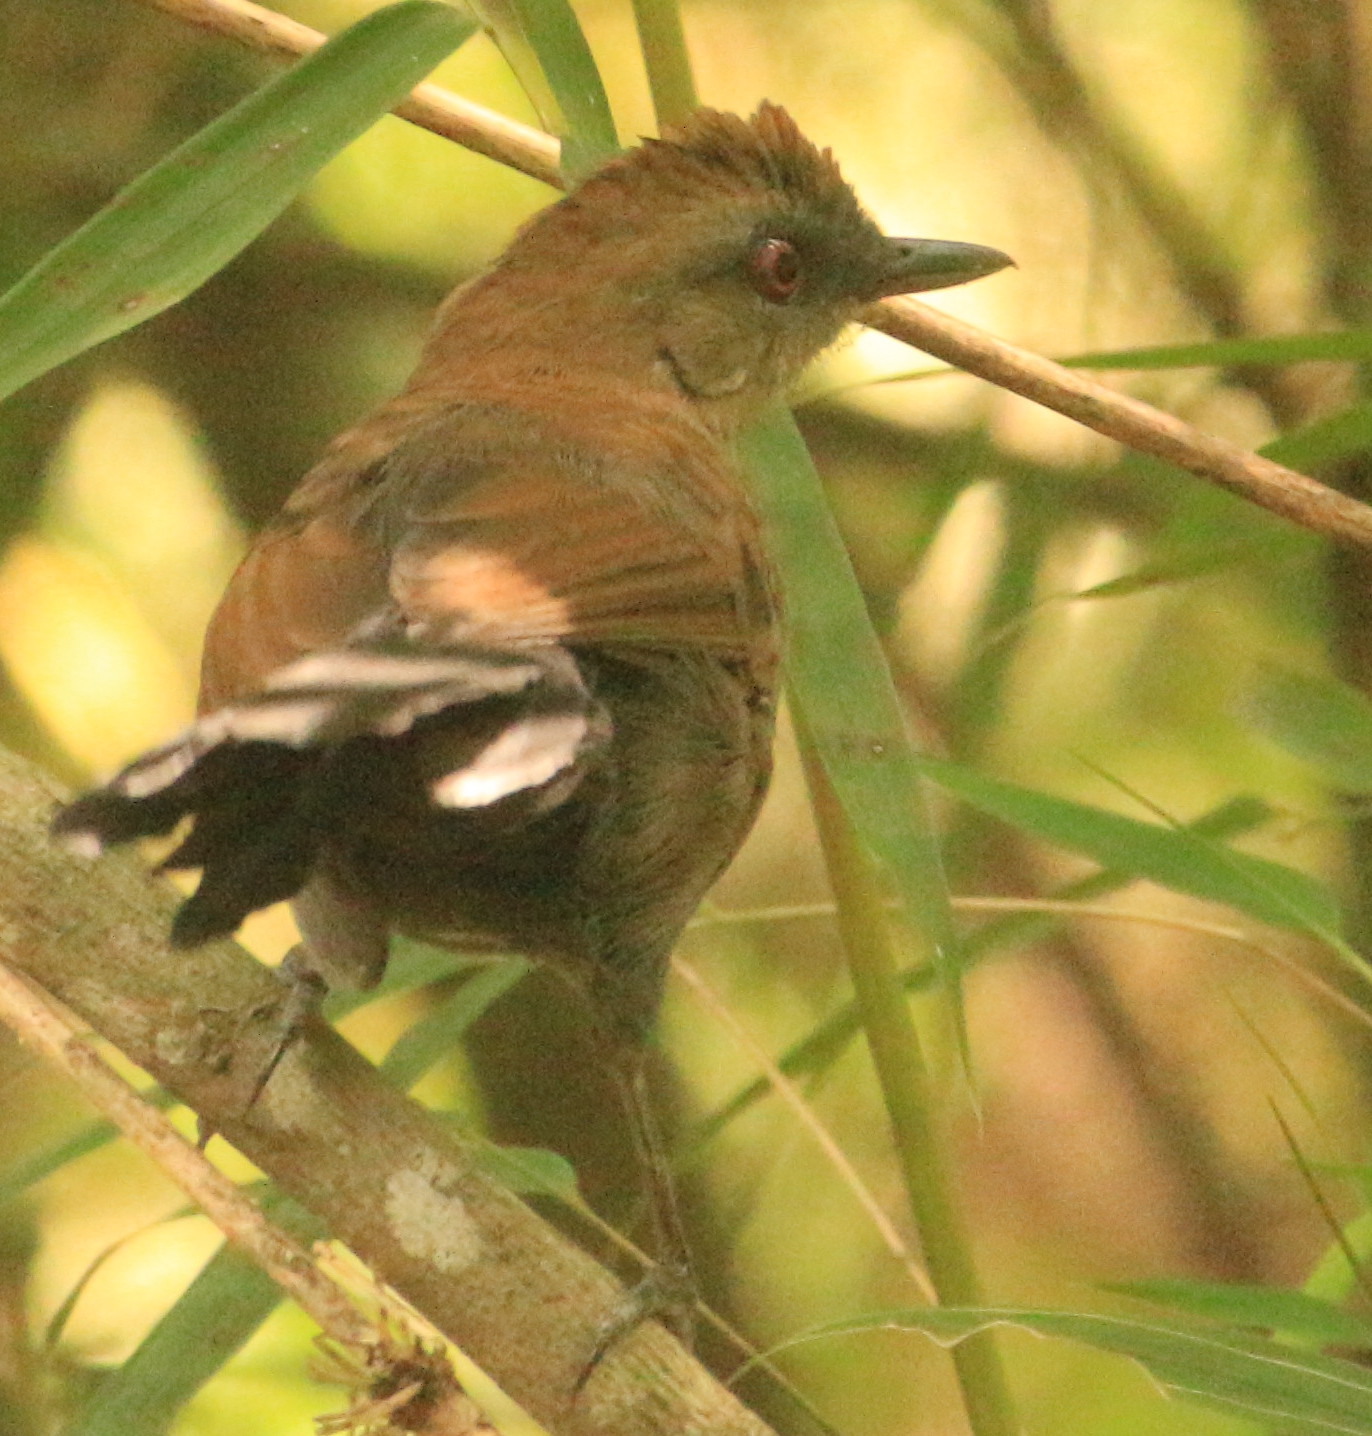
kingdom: Animalia
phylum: Chordata
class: Aves
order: Passeriformes
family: Thamnophilidae
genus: Pyriglena
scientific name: Pyriglena leucoptera
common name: White-shouldered fire-eye
